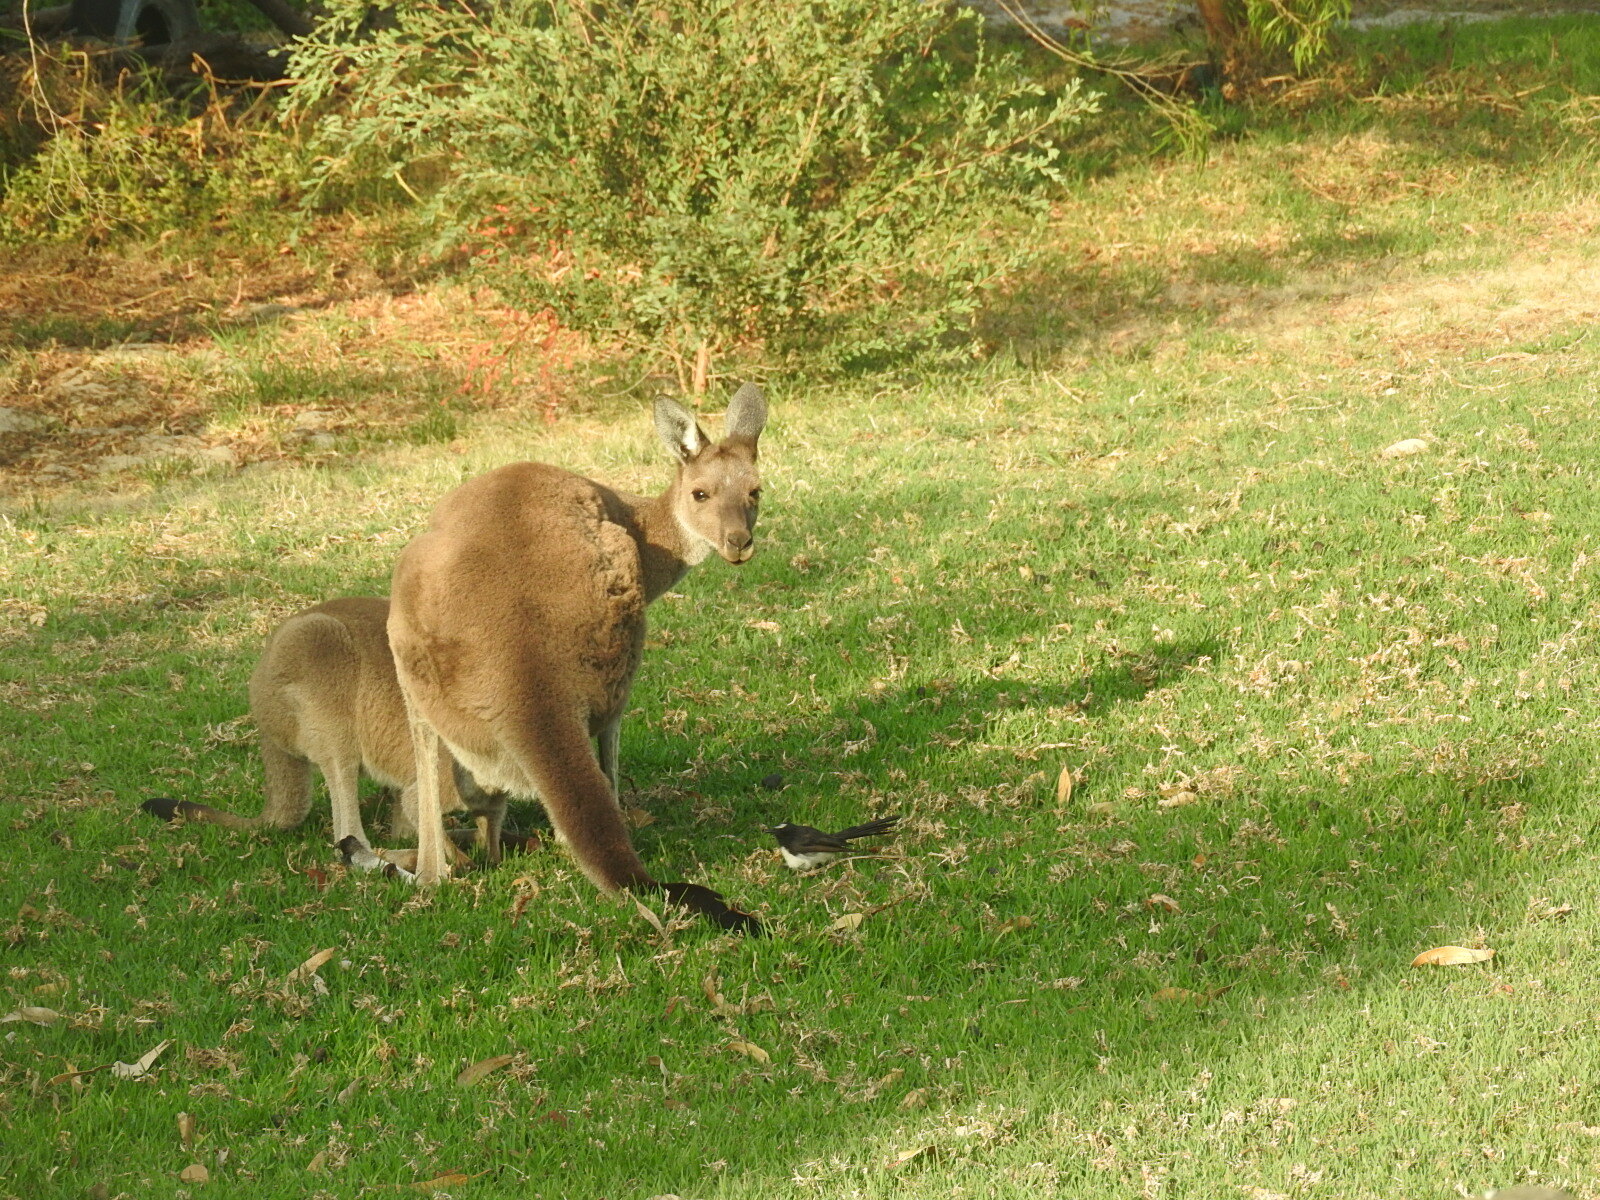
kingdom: Animalia
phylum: Chordata
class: Mammalia
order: Diprotodontia
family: Macropodidae
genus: Macropus
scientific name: Macropus fuliginosus
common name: Western grey kangaroo
